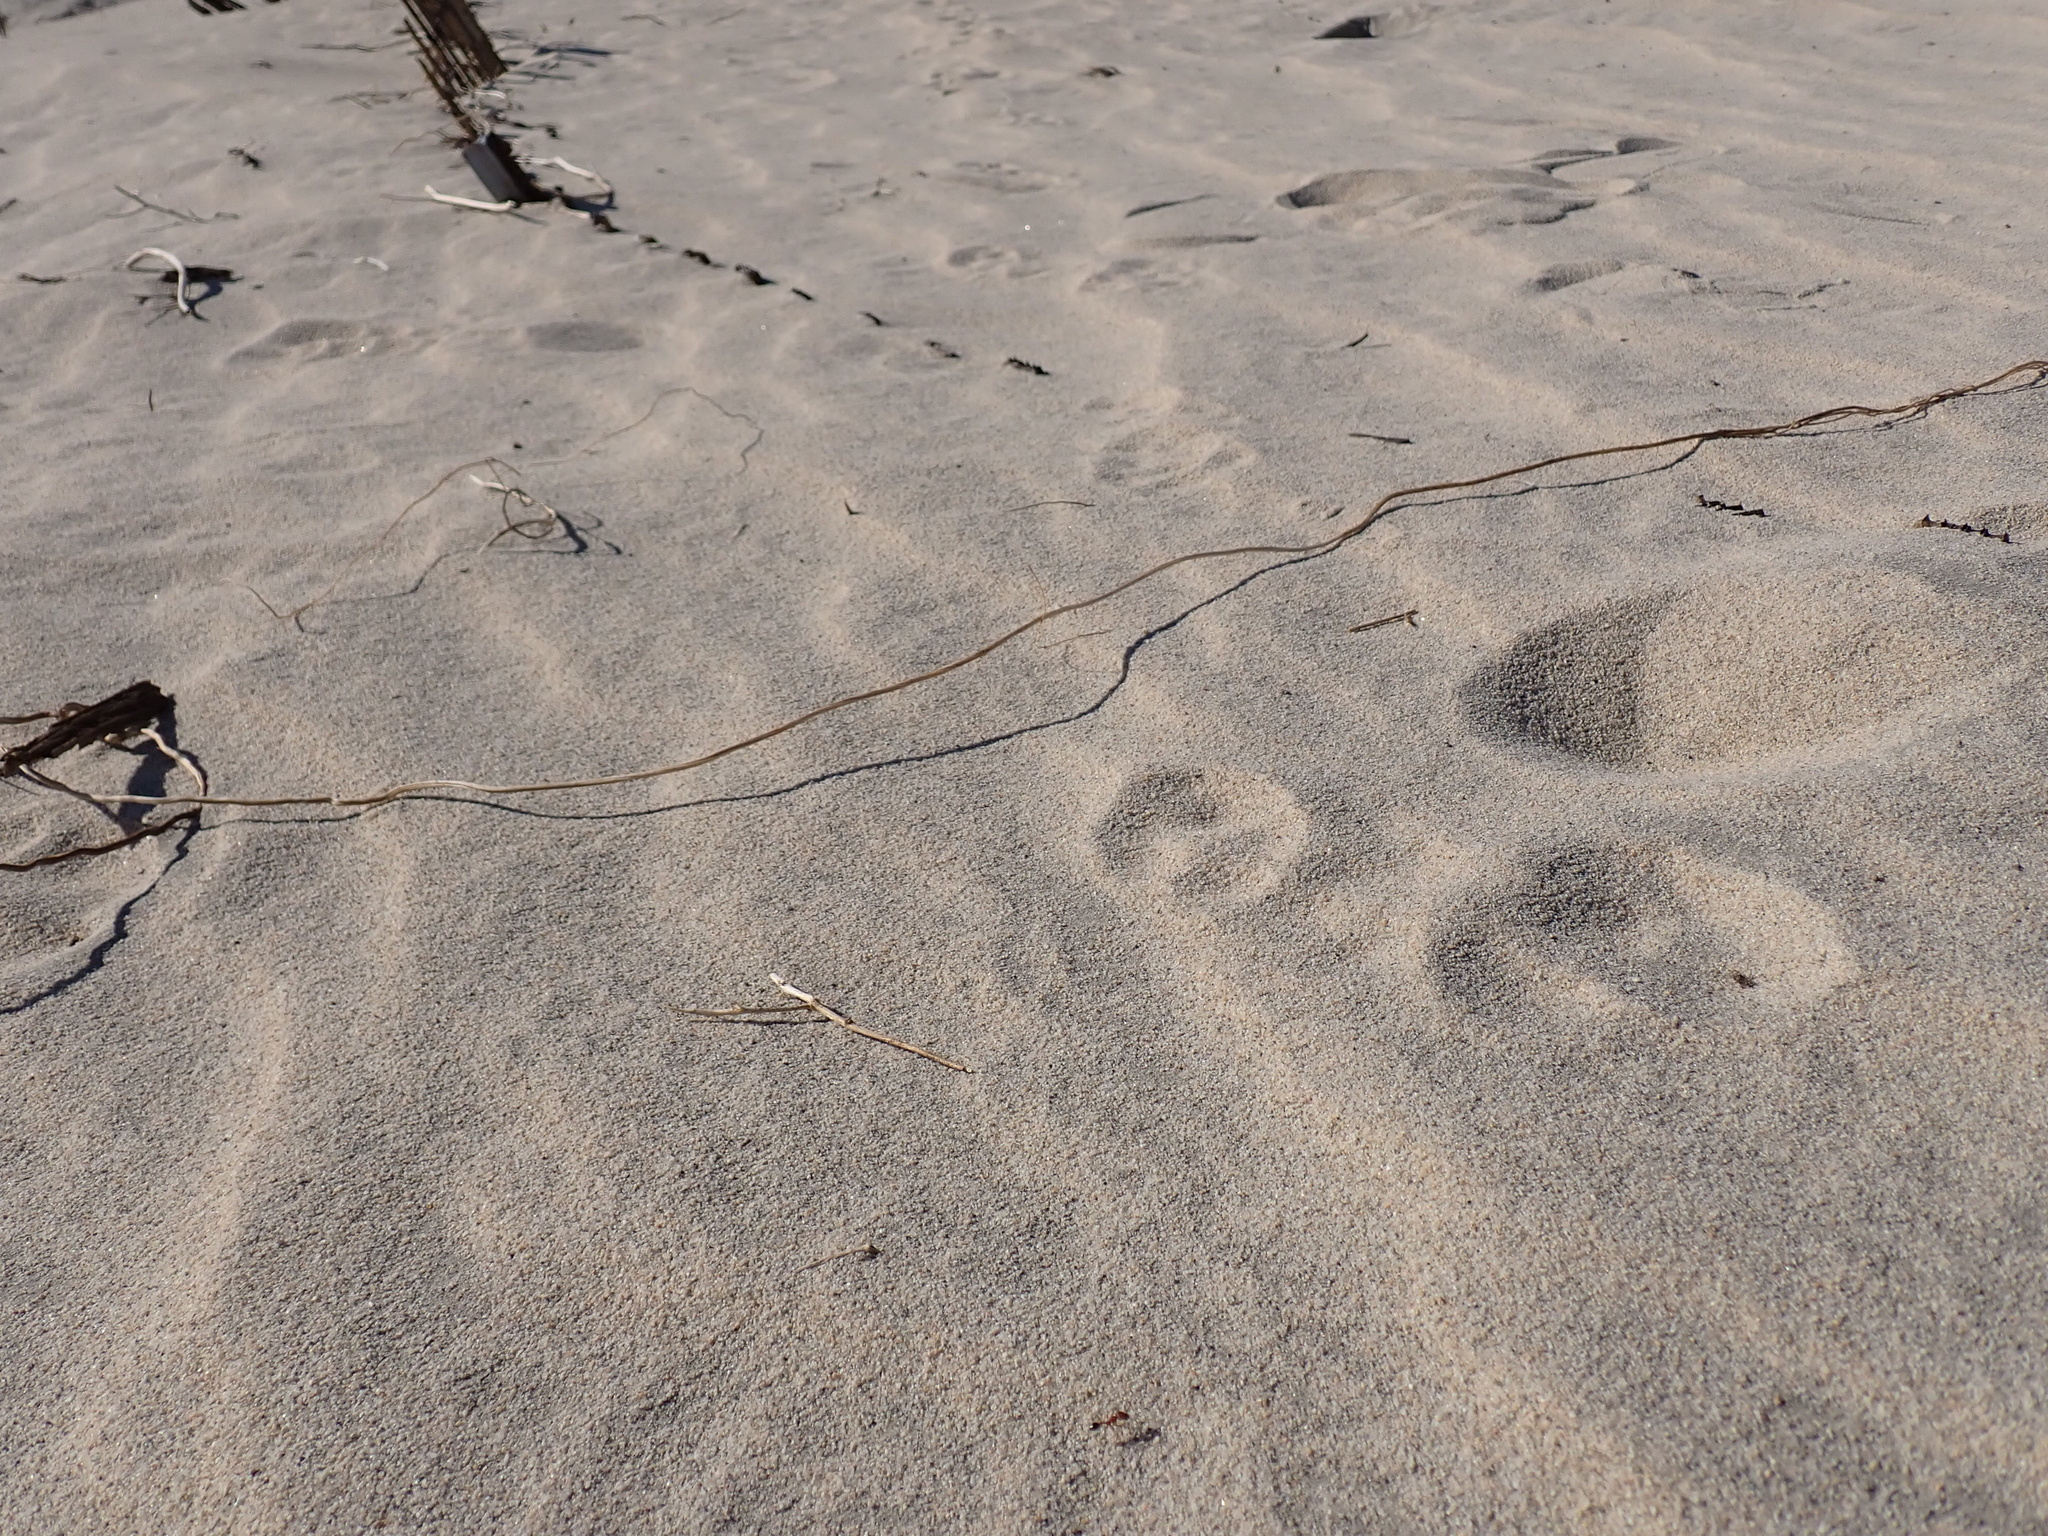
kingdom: Animalia
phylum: Chordata
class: Mammalia
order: Carnivora
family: Canidae
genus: Vulpes
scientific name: Vulpes macrotis
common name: Kit fox
